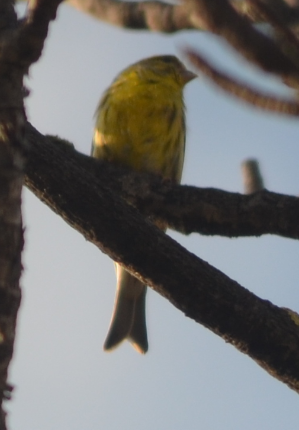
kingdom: Animalia
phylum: Chordata
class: Aves
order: Passeriformes
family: Fringillidae
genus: Serinus
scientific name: Serinus serinus
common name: European serin
